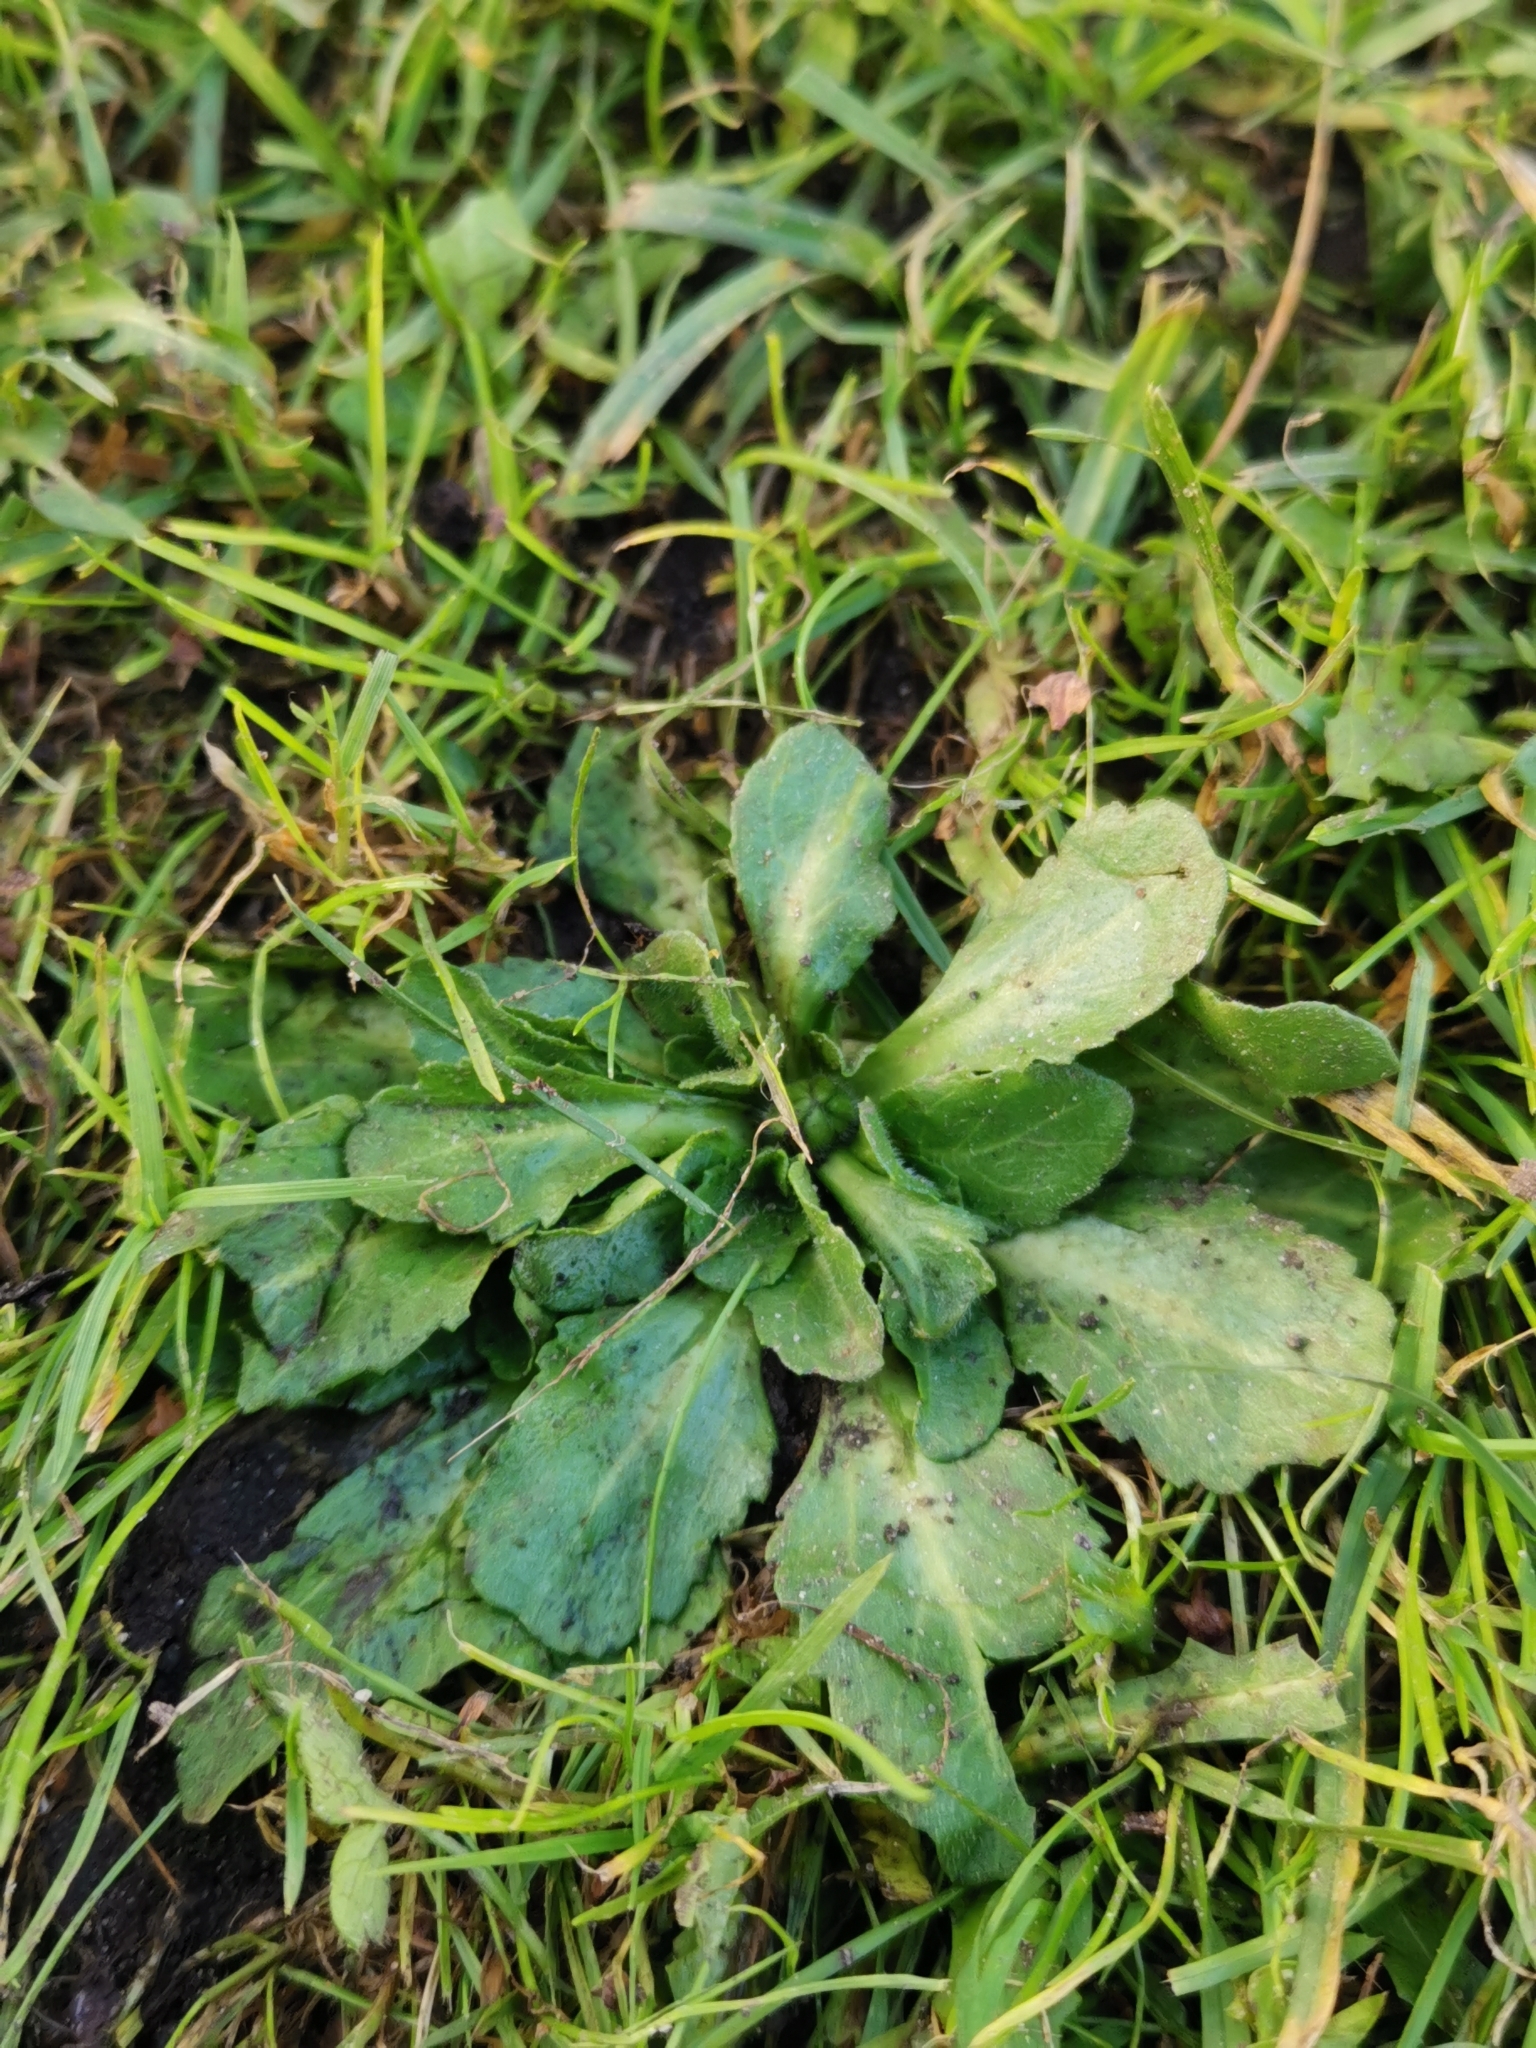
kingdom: Plantae
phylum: Tracheophyta
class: Magnoliopsida
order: Asterales
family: Asteraceae
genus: Bellis
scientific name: Bellis perennis
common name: Lawndaisy
